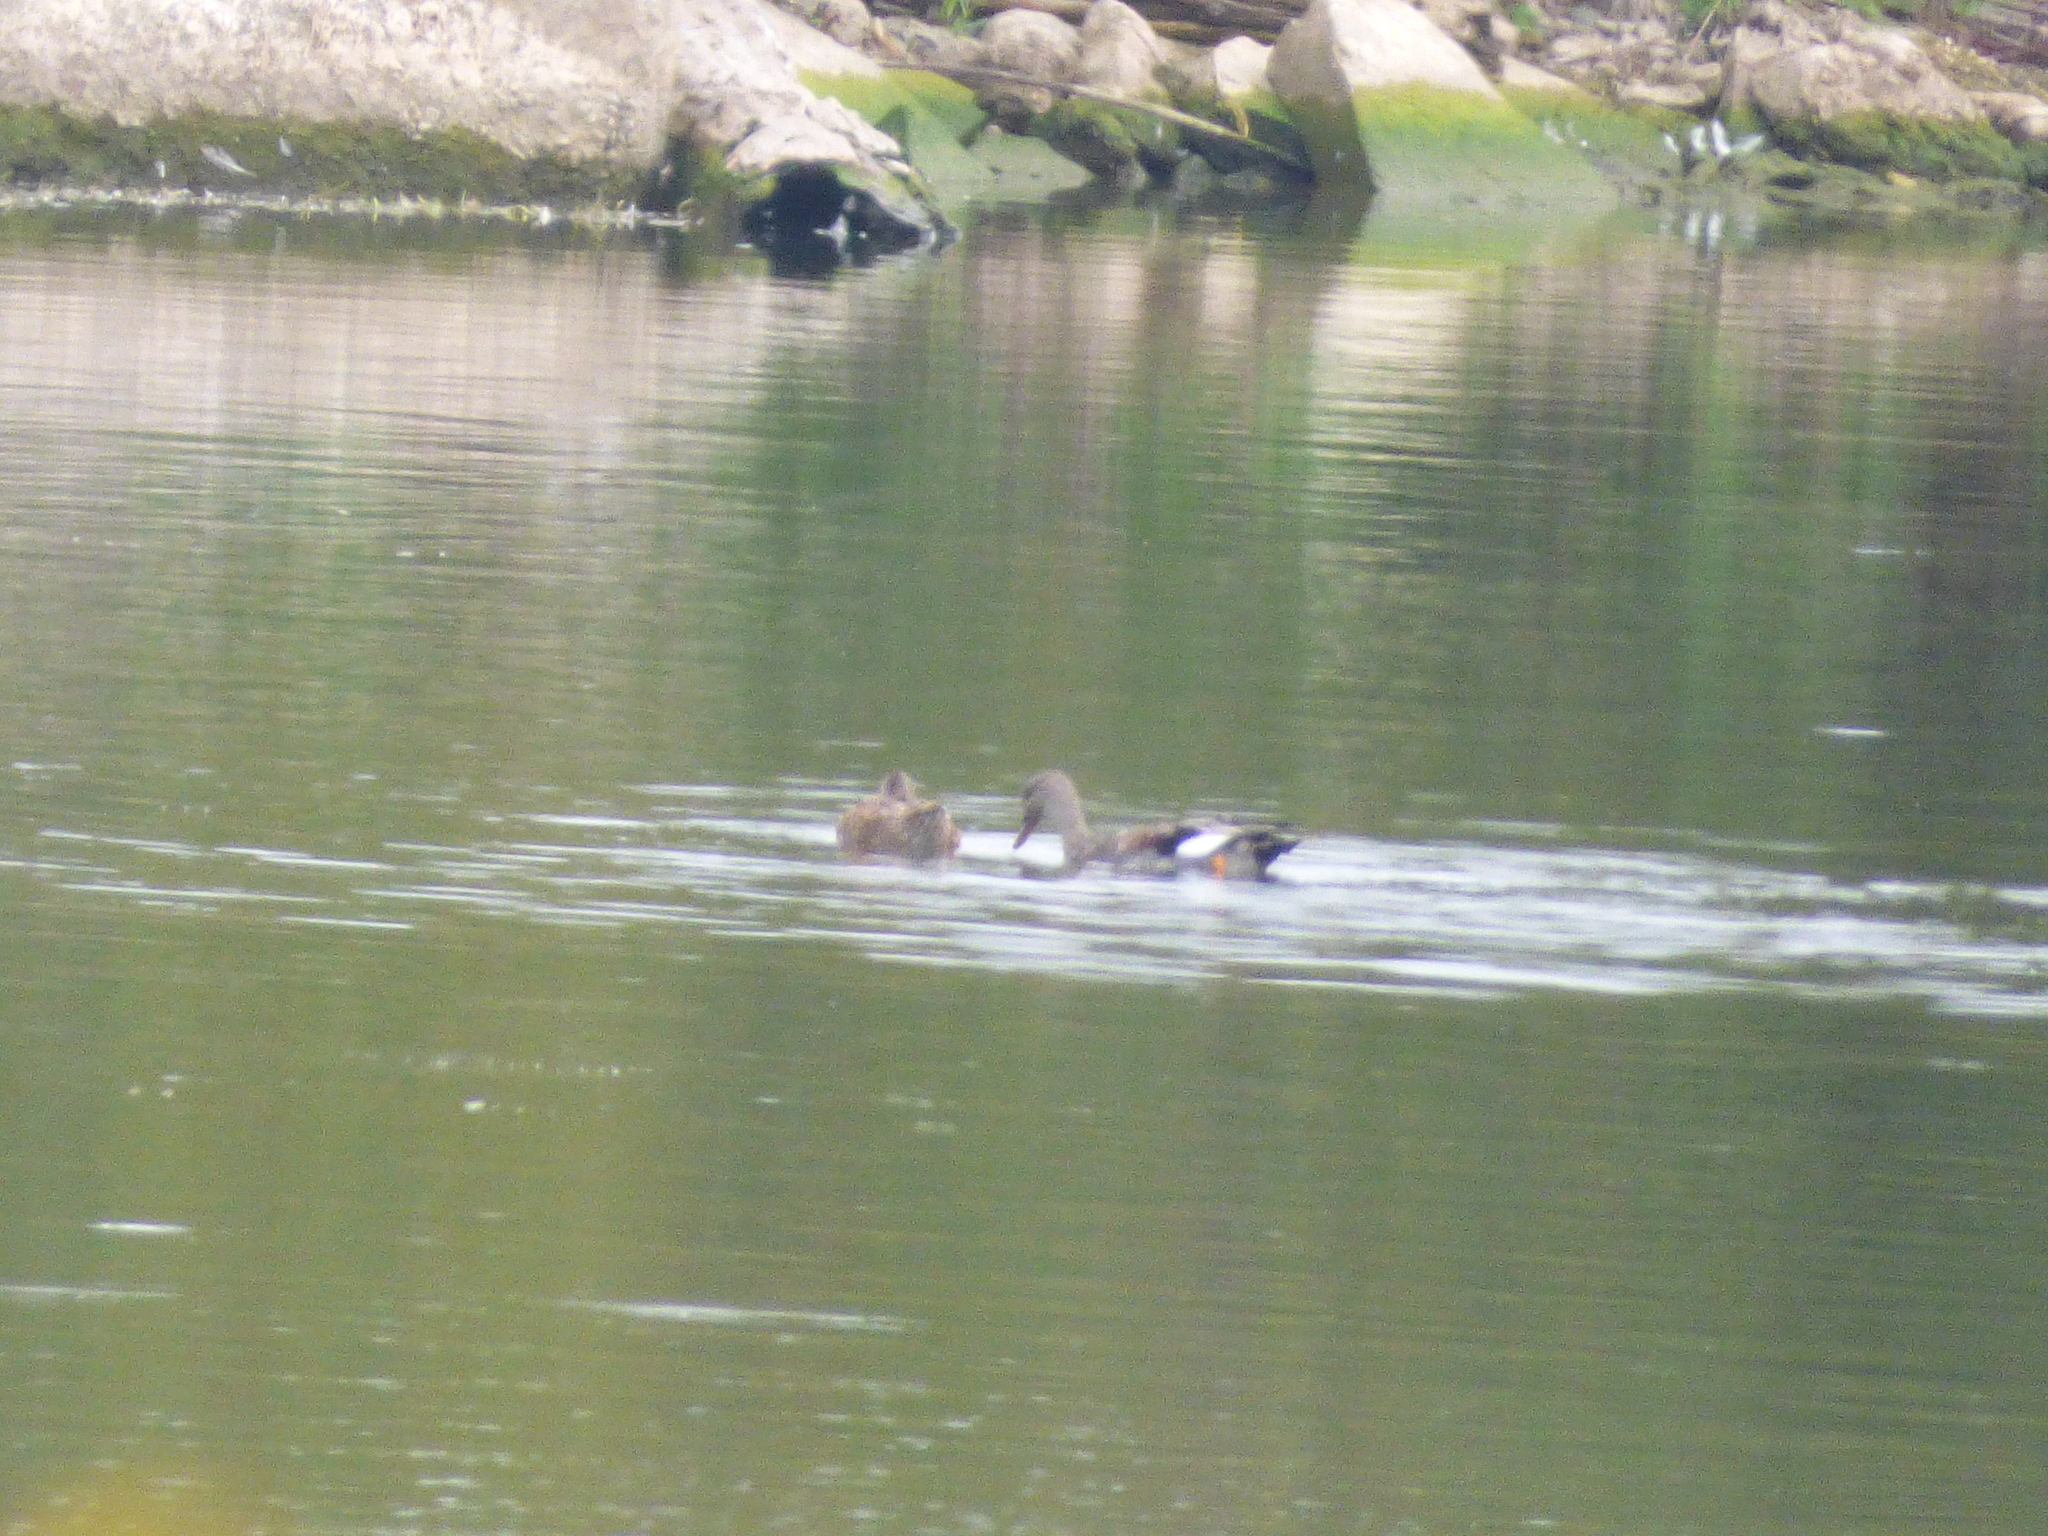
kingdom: Animalia
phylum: Chordata
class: Aves
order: Anseriformes
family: Anatidae
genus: Mareca
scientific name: Mareca strepera
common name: Gadwall
